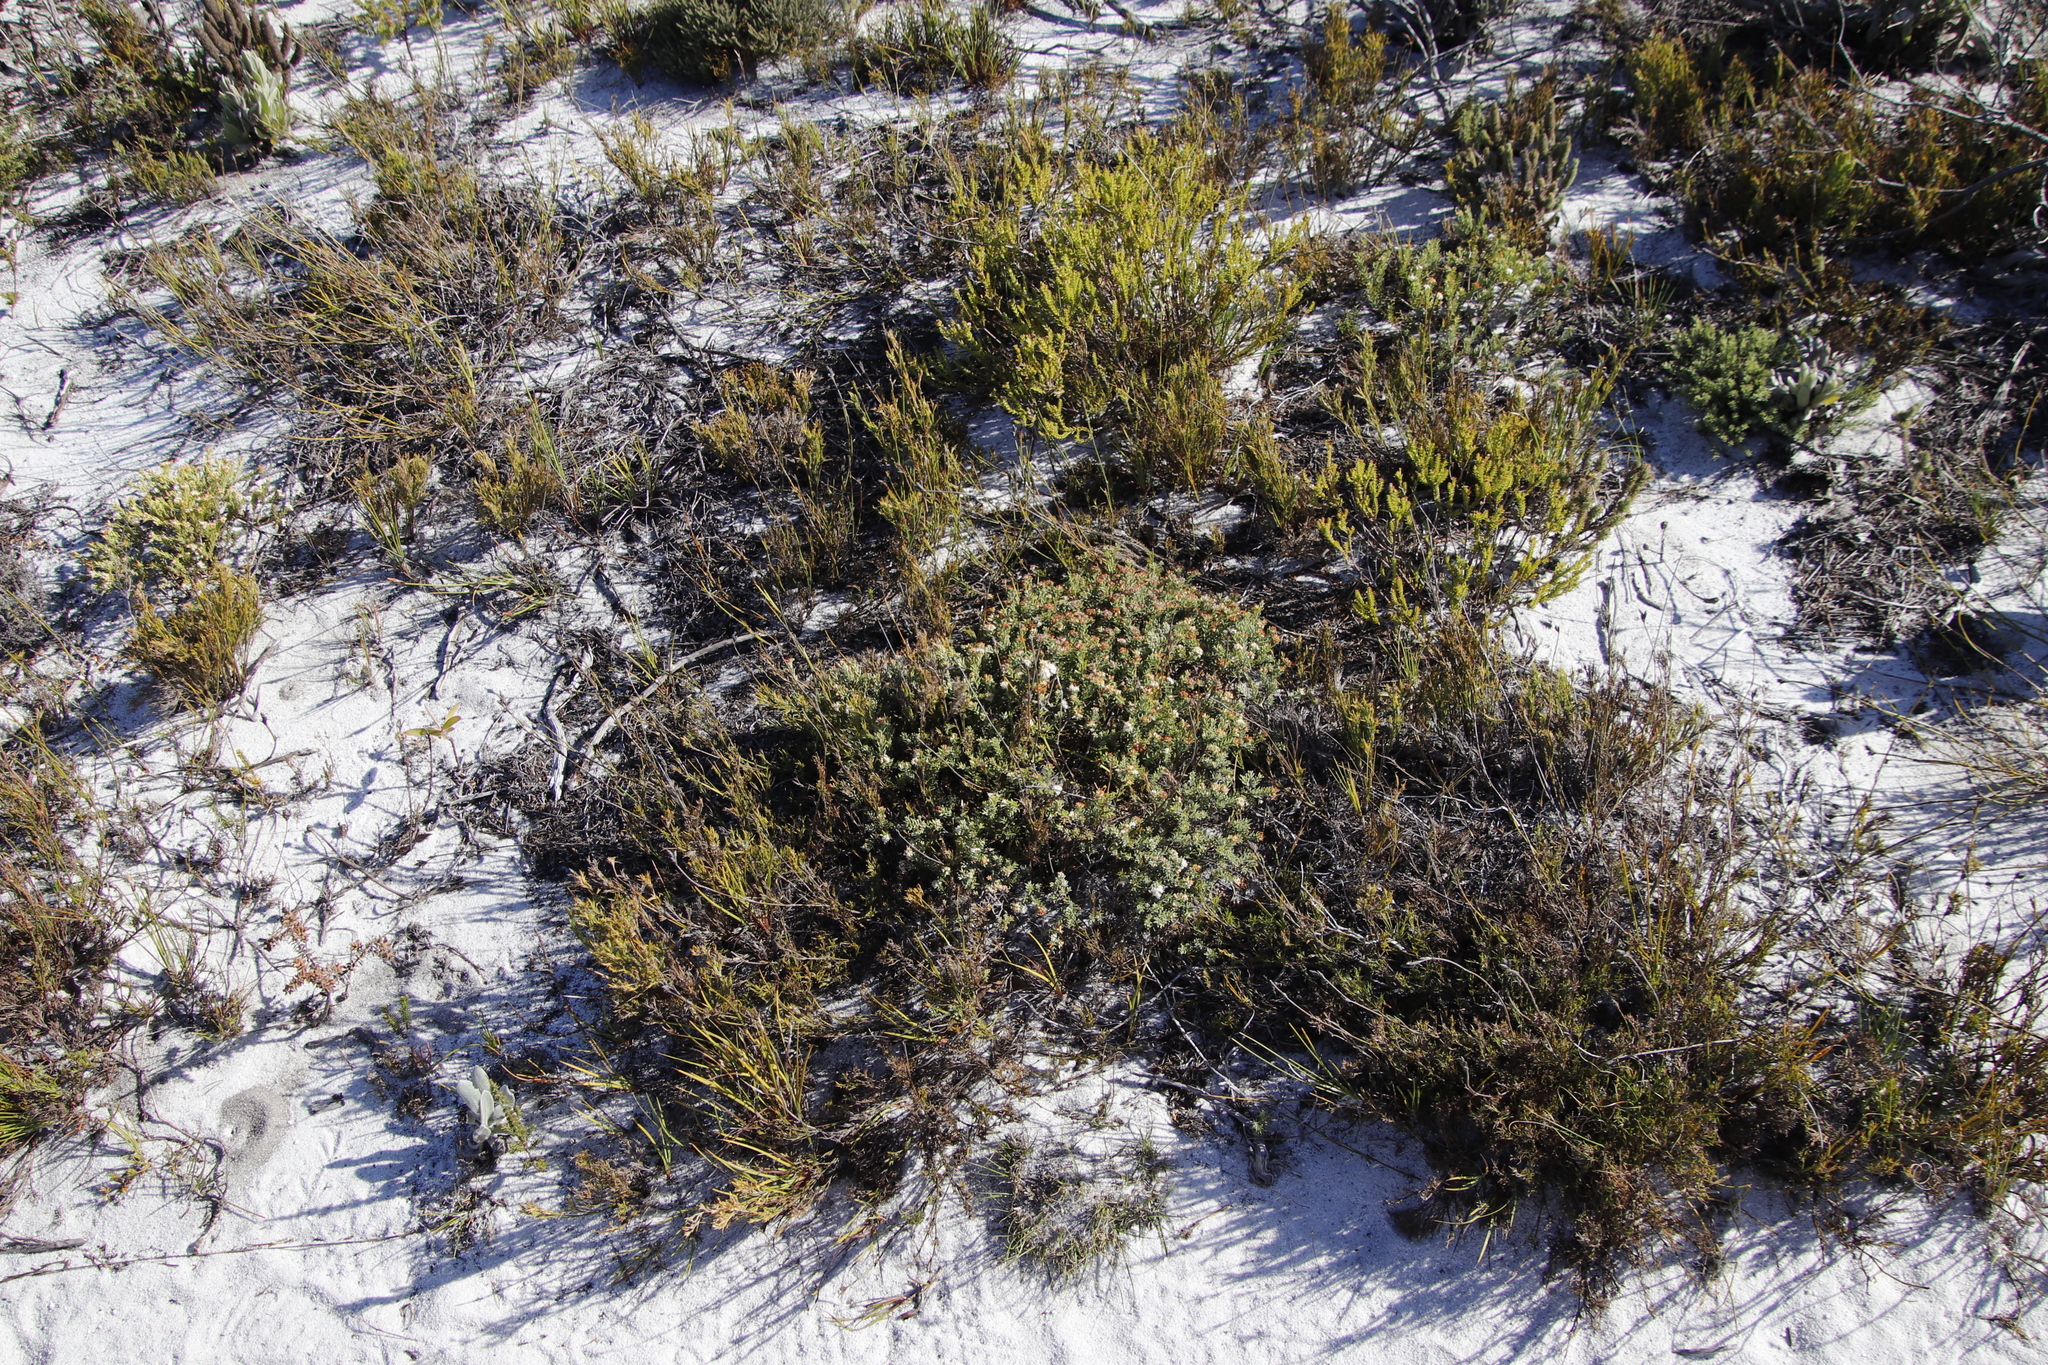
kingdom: Plantae
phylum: Tracheophyta
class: Magnoliopsida
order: Sapindales
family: Rutaceae
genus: Macrostylis
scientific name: Macrostylis villosa
